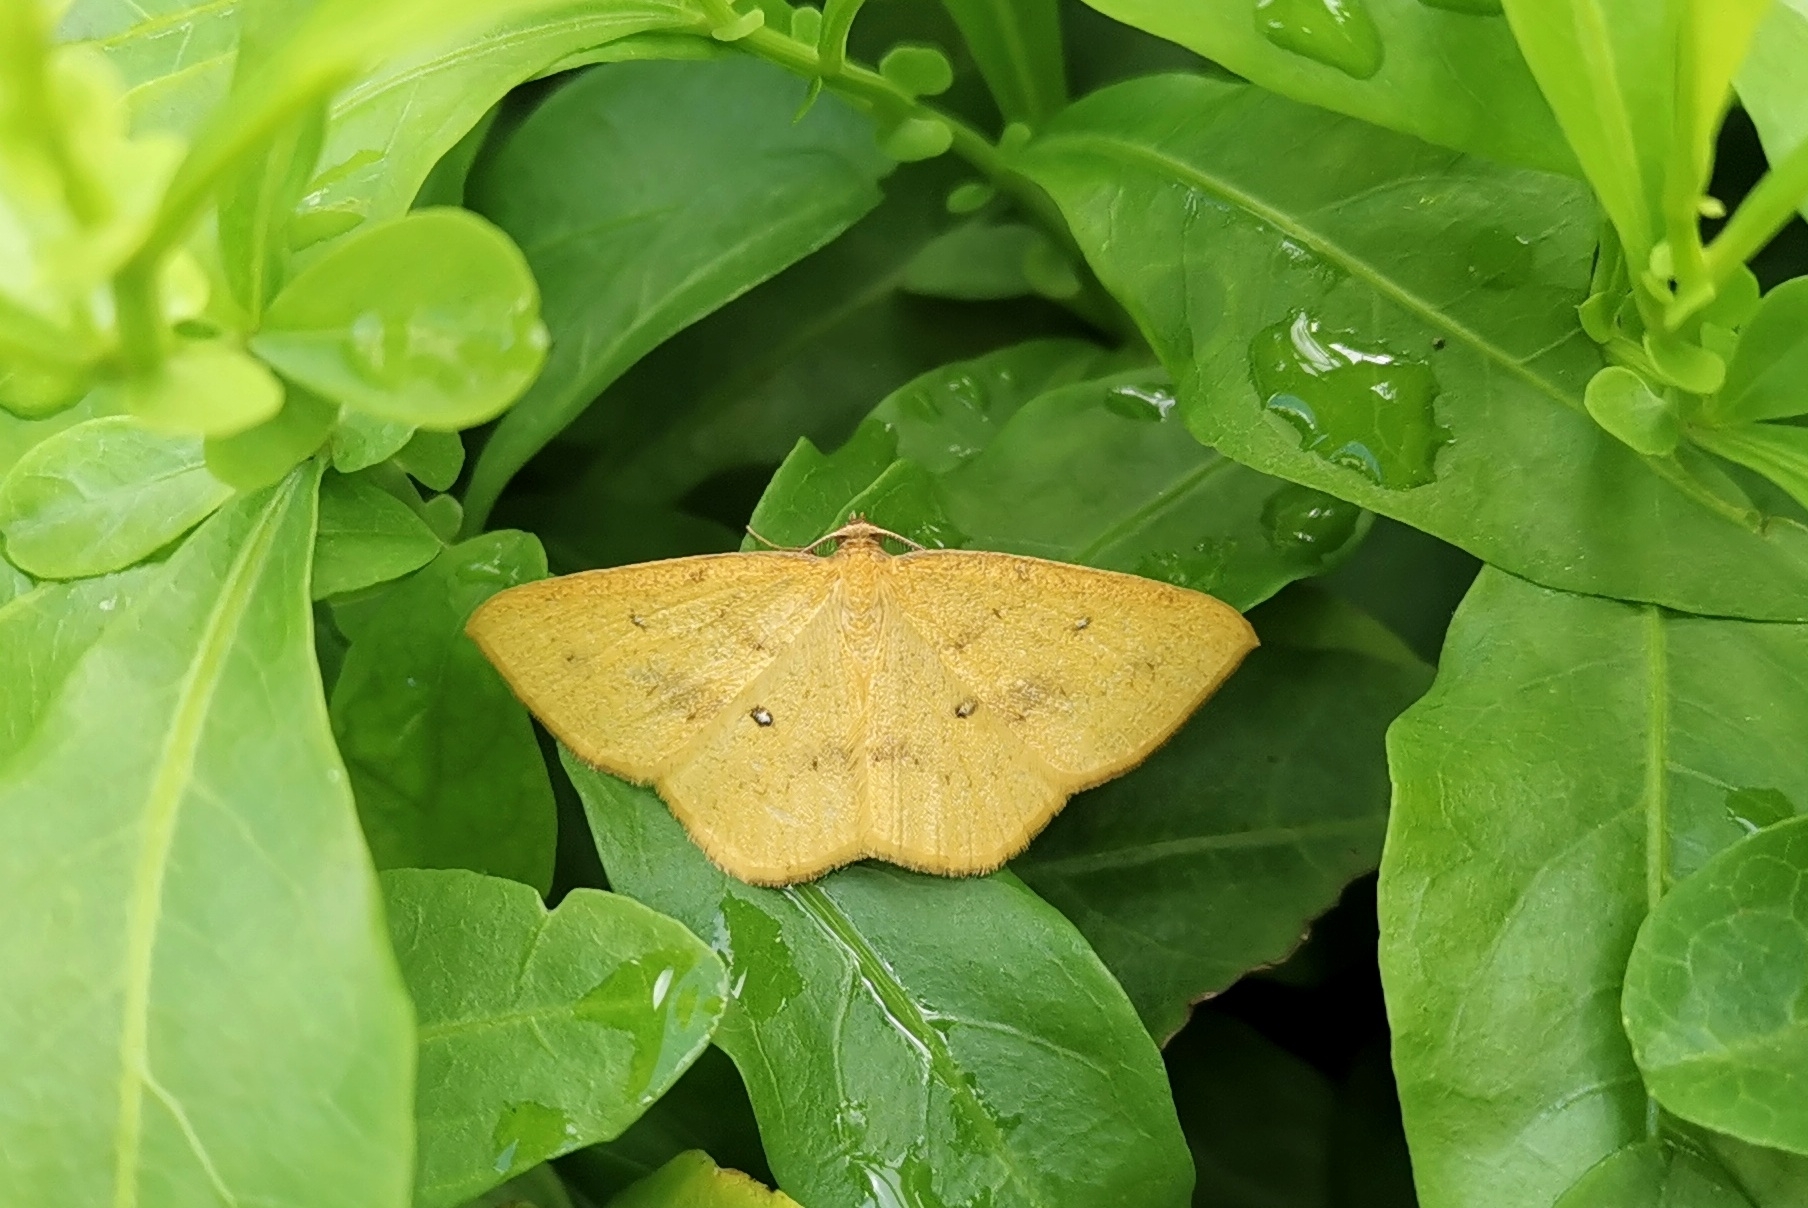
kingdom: Animalia
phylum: Arthropoda
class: Insecta
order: Lepidoptera
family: Geometridae
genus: Palaeaspilates
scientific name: Palaeaspilates Anisephyra ocularia
